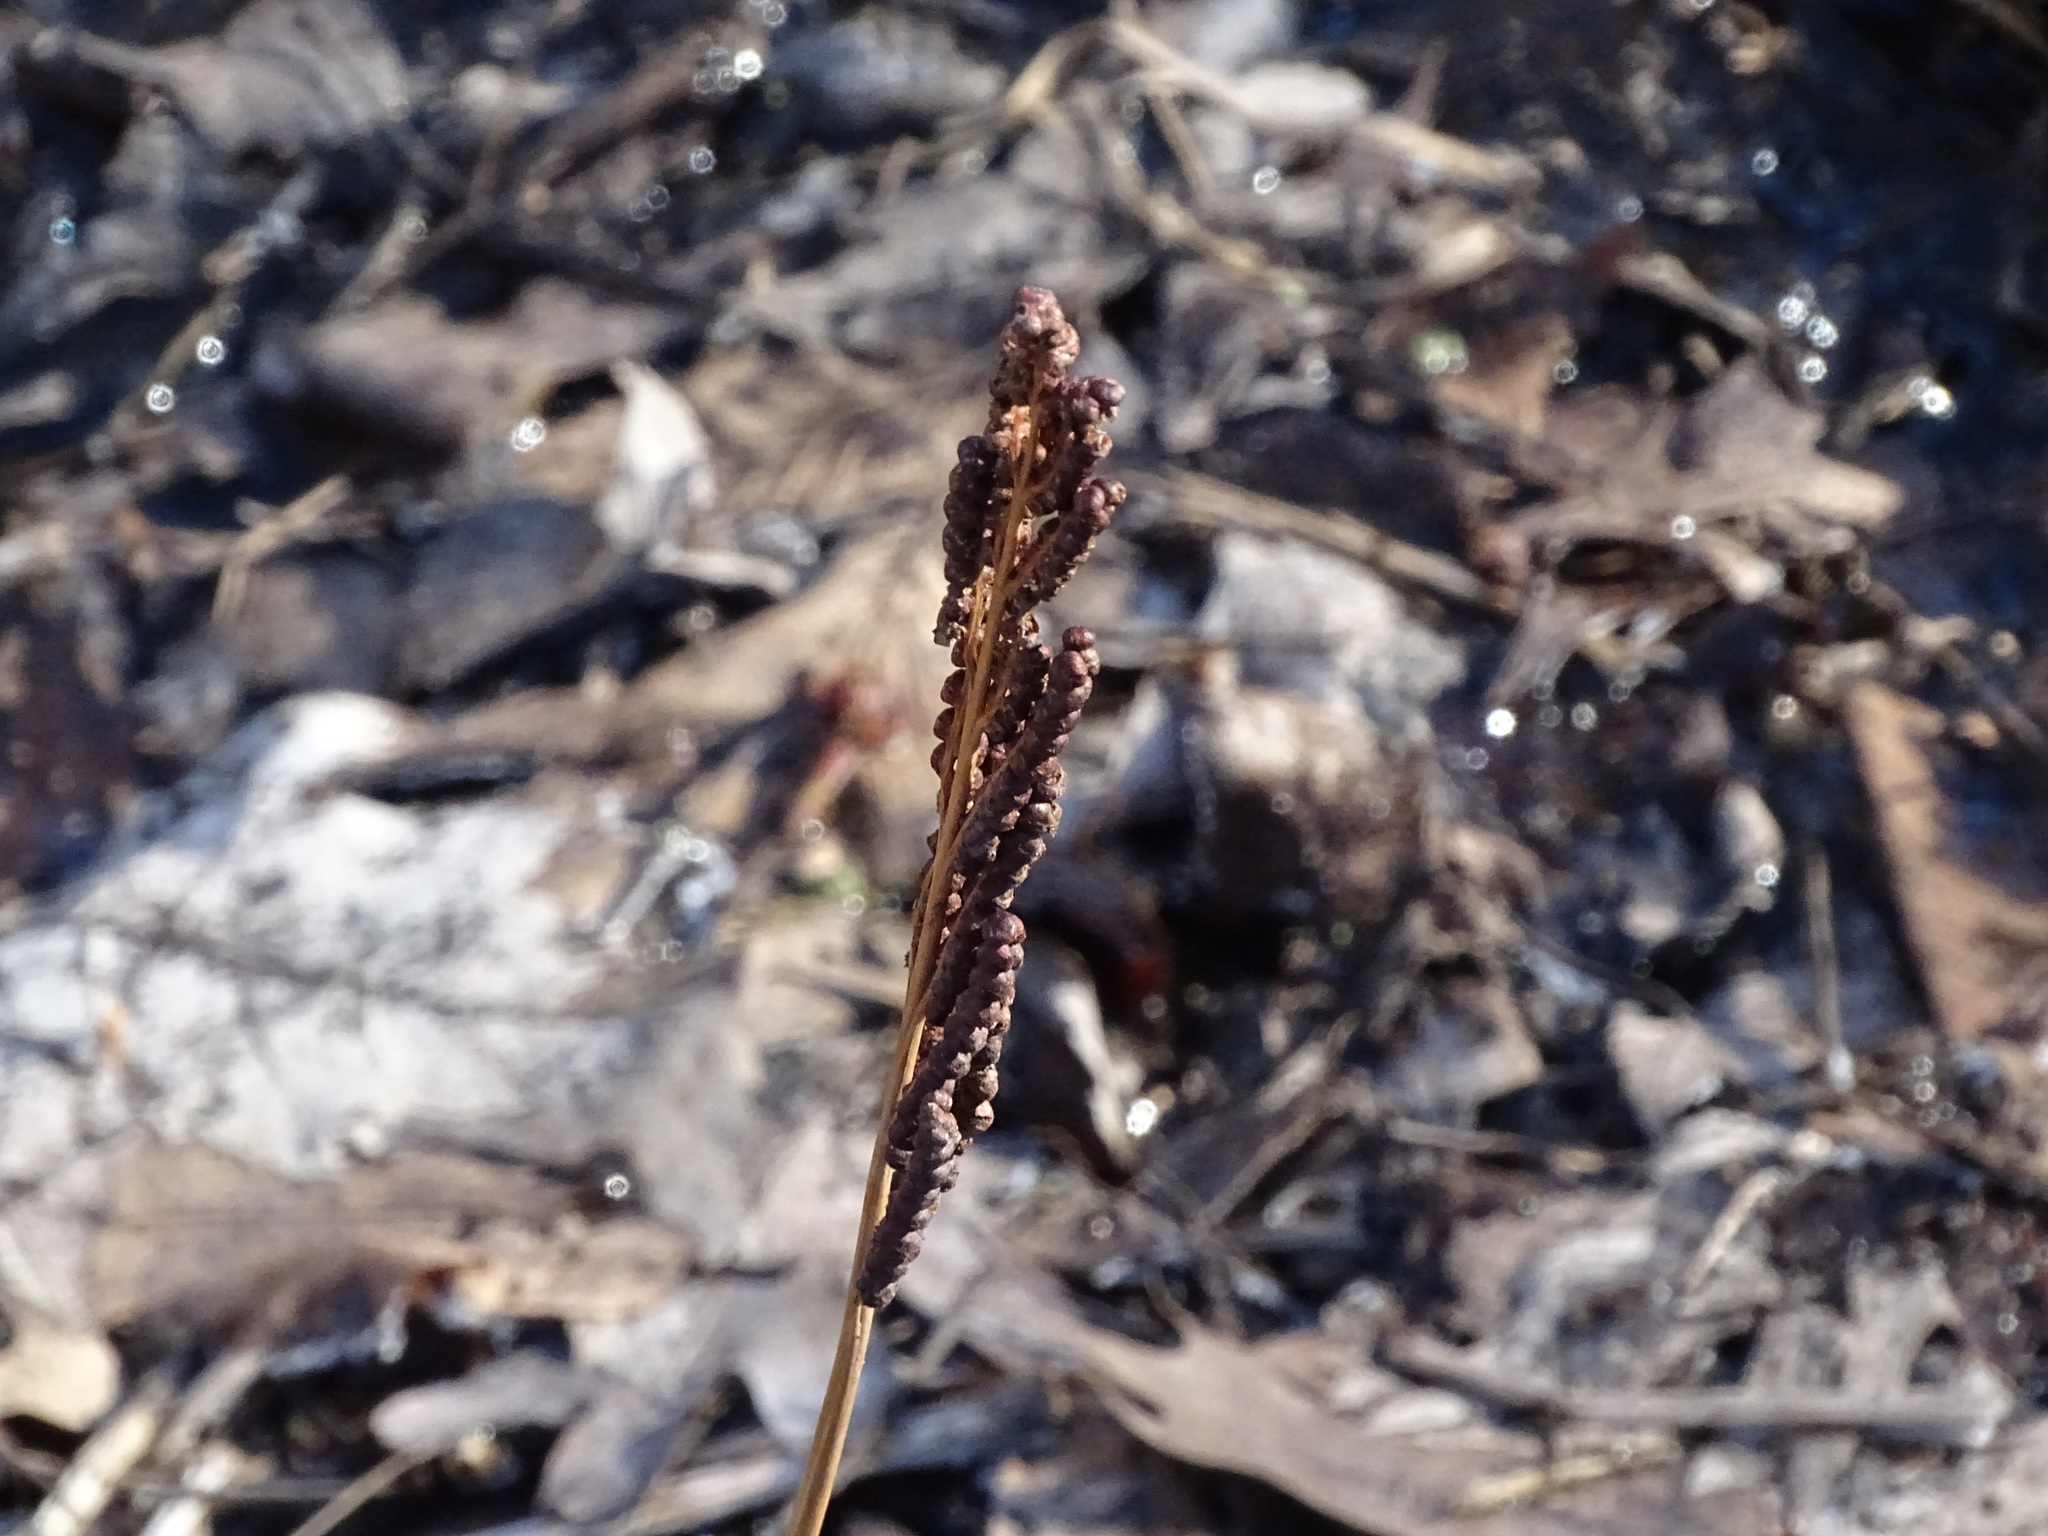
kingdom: Plantae
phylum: Tracheophyta
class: Polypodiopsida
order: Polypodiales
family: Onocleaceae
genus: Onoclea
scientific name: Onoclea sensibilis
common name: Sensitive fern
